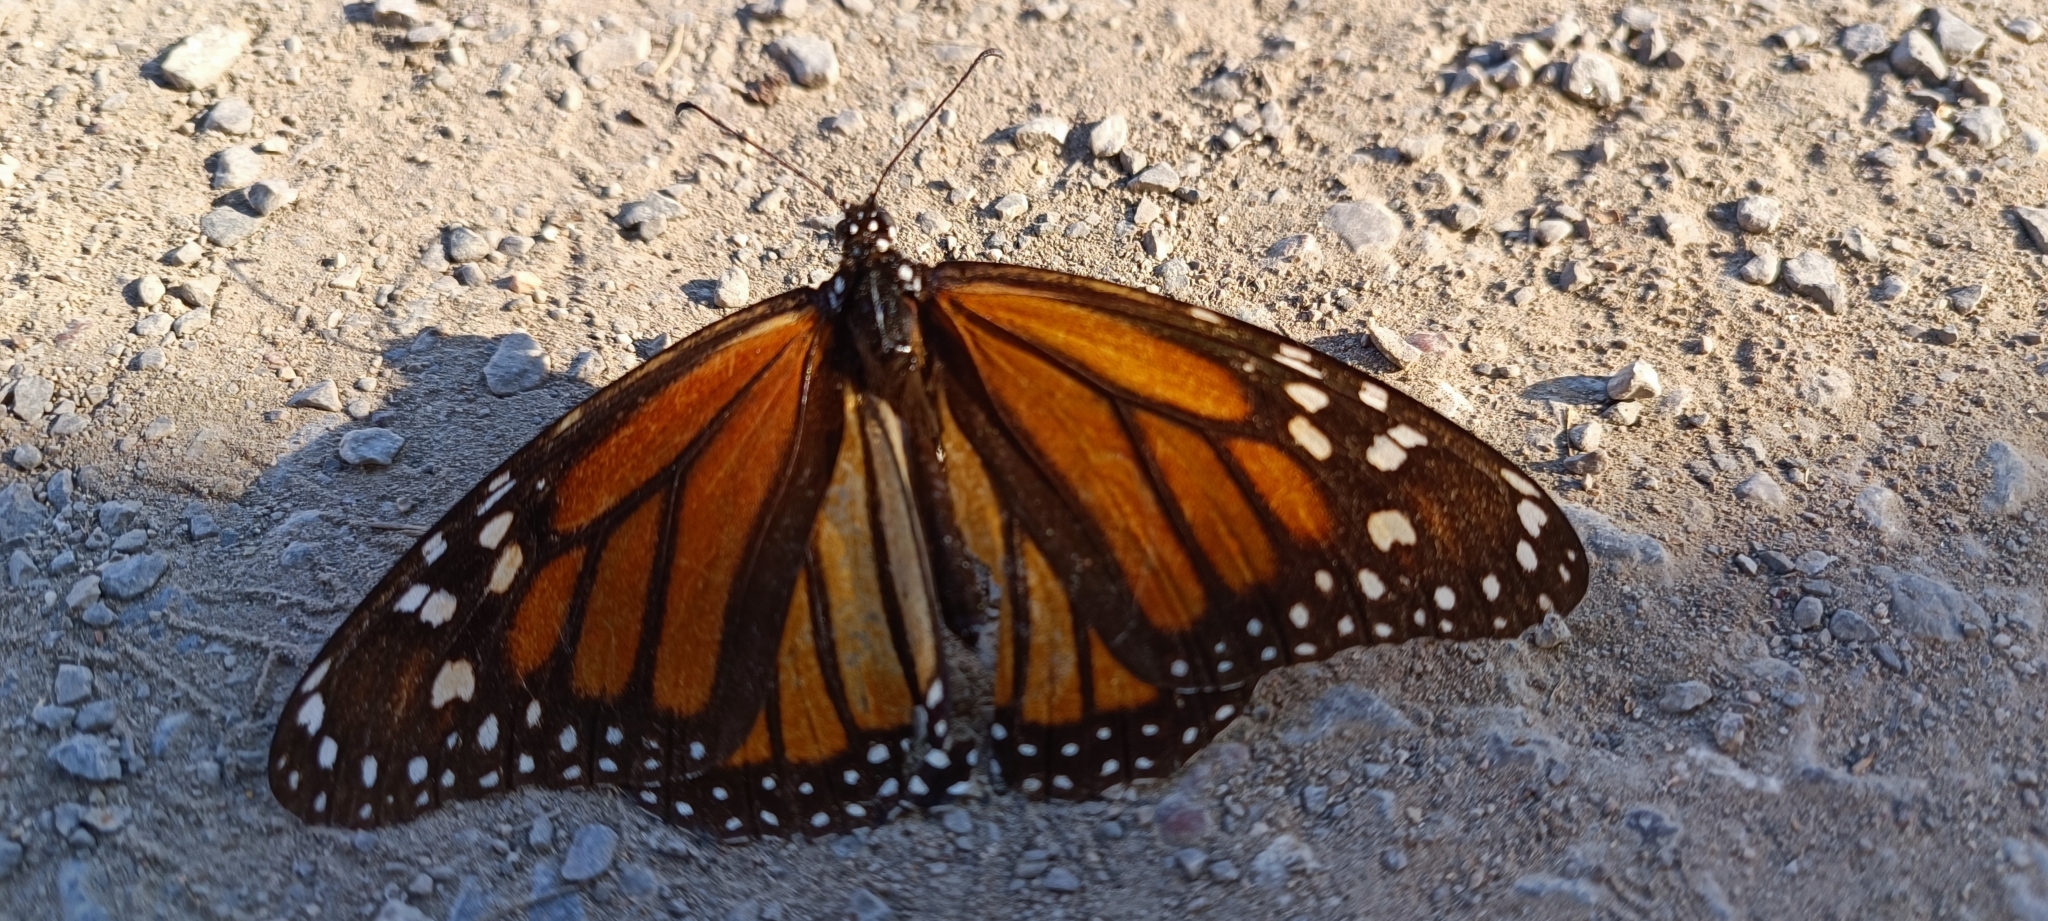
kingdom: Animalia
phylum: Arthropoda
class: Insecta
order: Lepidoptera
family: Nymphalidae
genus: Danaus
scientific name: Danaus plexippus
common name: Monarch
